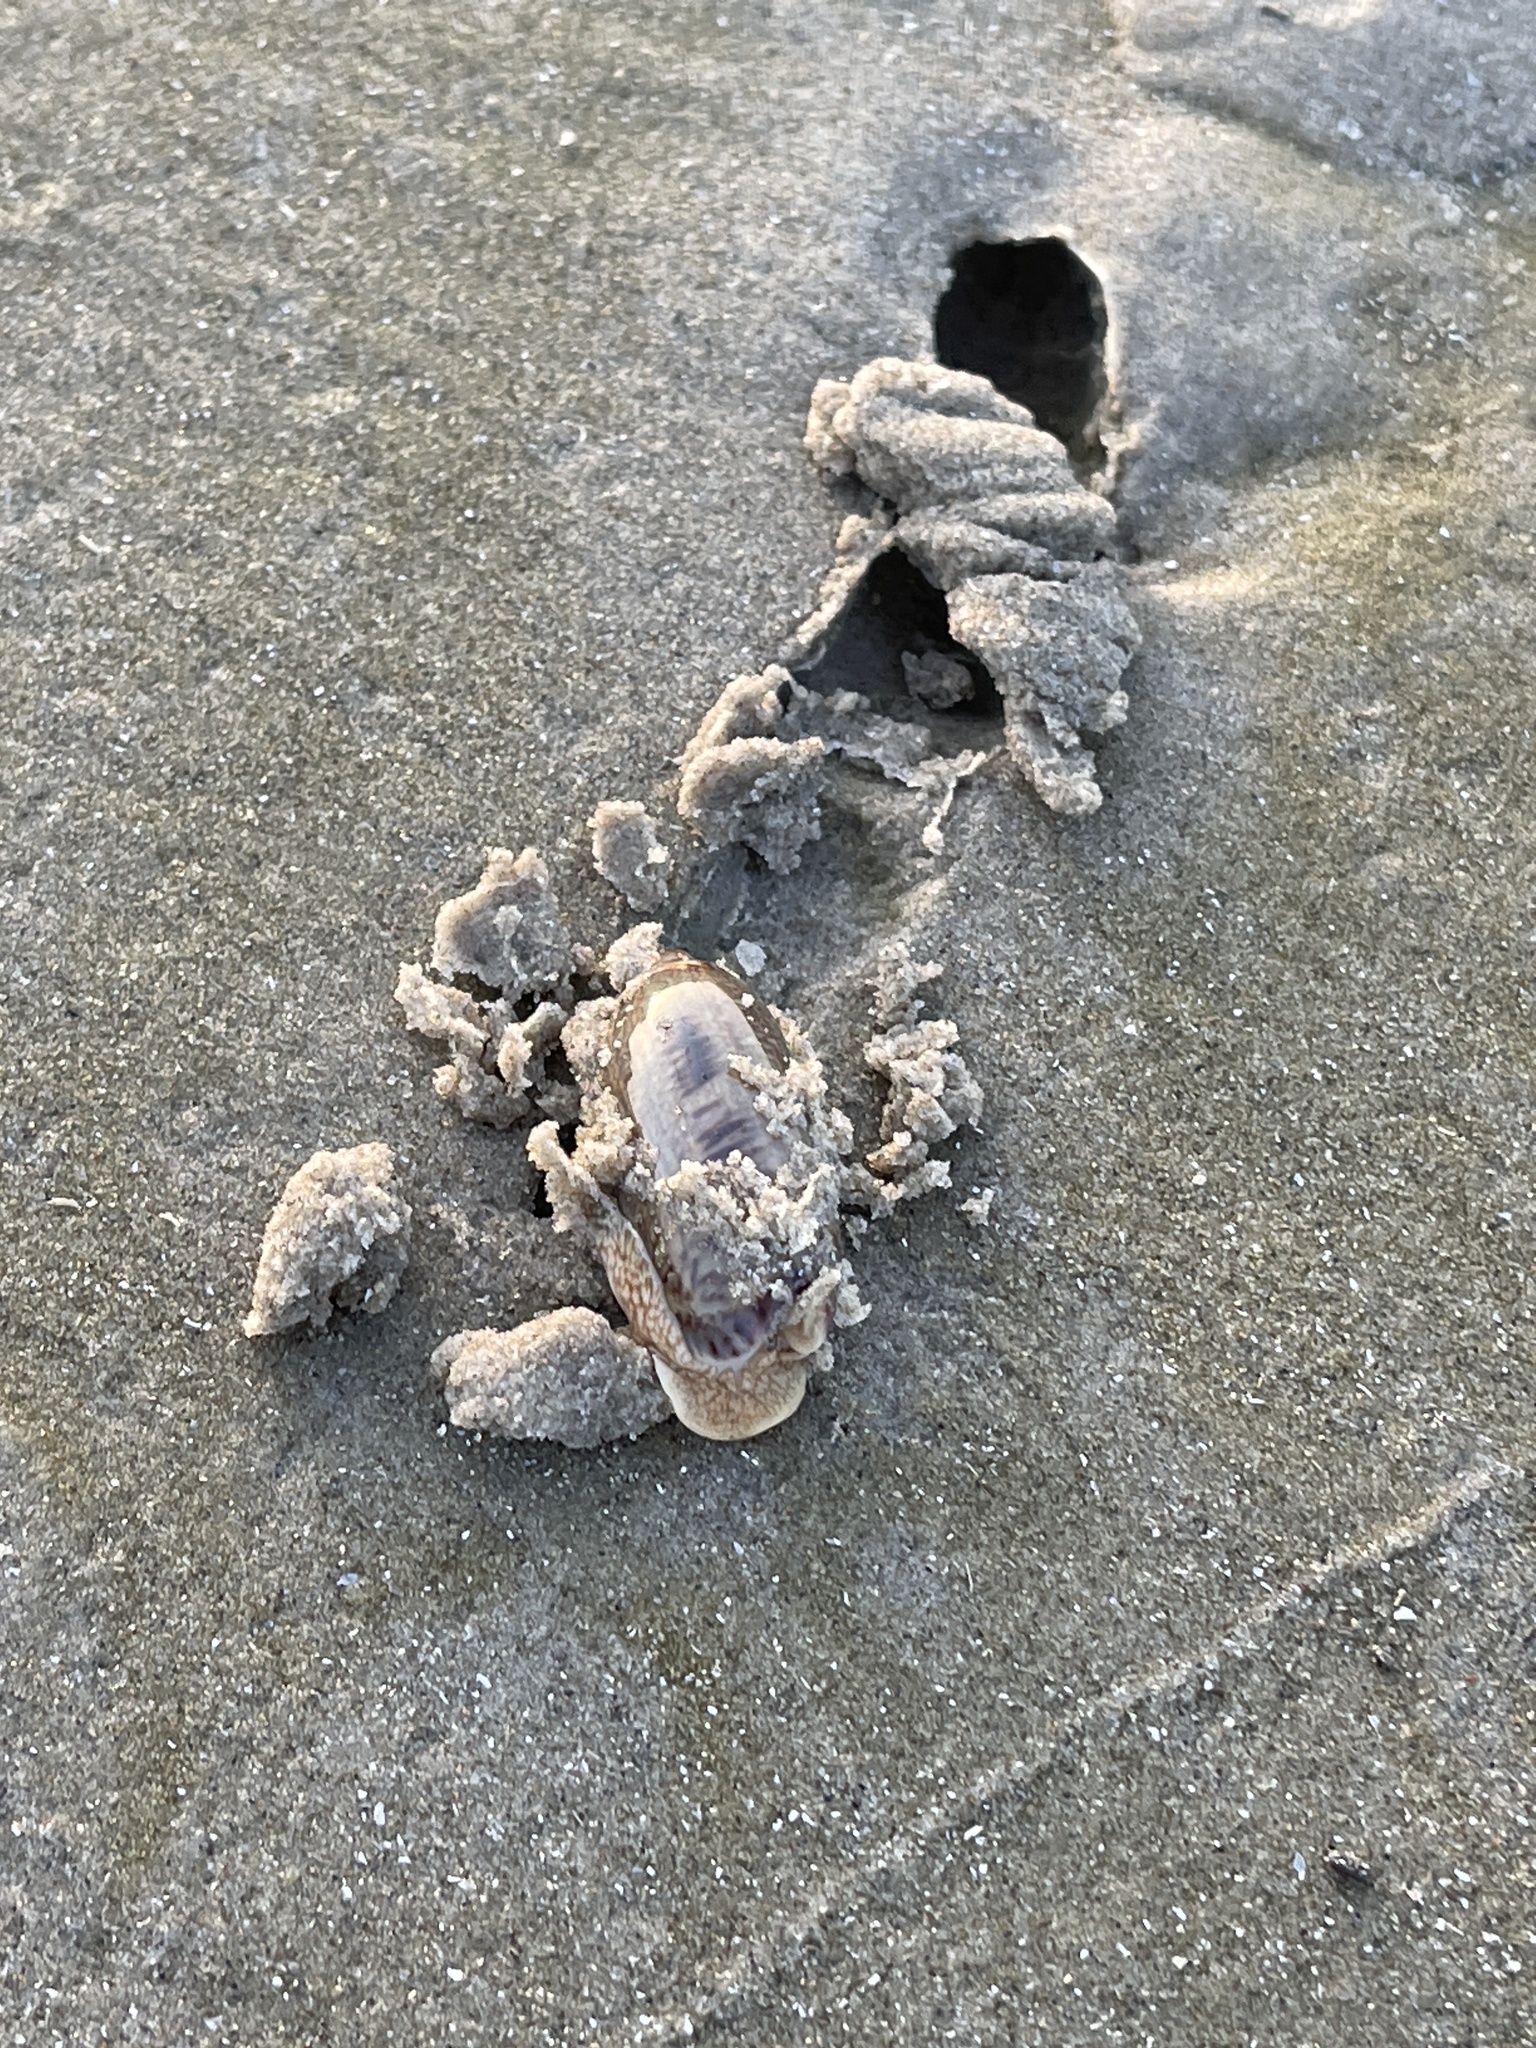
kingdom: Animalia
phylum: Mollusca
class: Gastropoda
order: Neogastropoda
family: Olividae
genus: Oliva
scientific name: Oliva sayana
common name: Lettered olive
